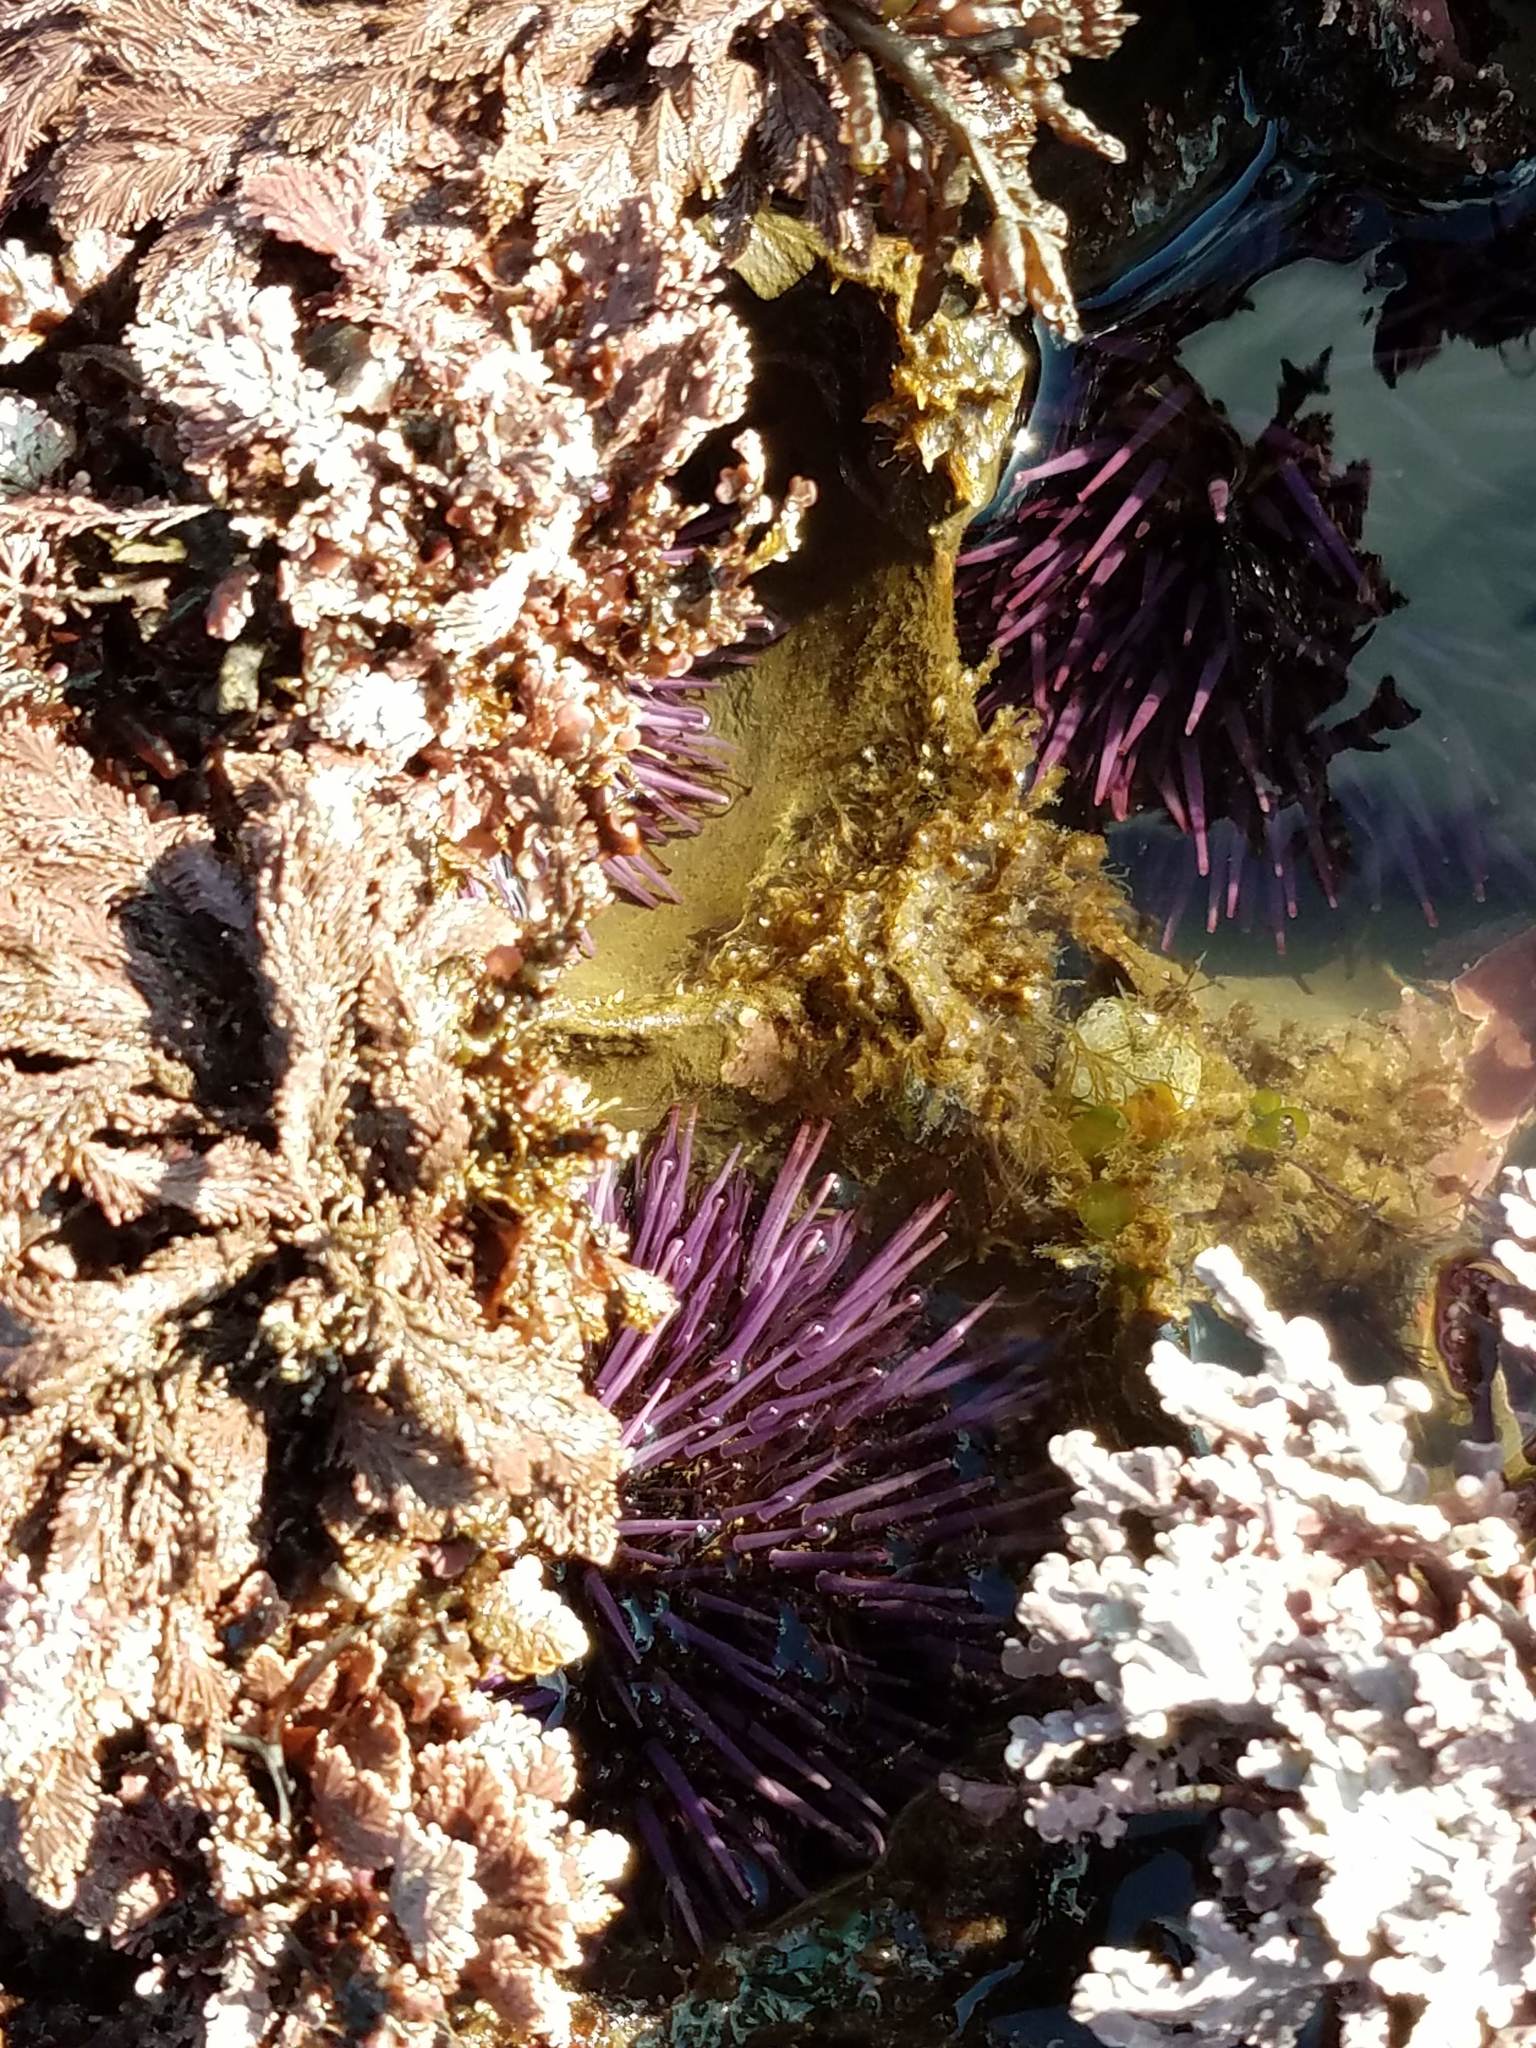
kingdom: Animalia
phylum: Echinodermata
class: Echinoidea
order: Camarodonta
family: Strongylocentrotidae
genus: Strongylocentrotus
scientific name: Strongylocentrotus purpuratus
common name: Purple sea urchin
